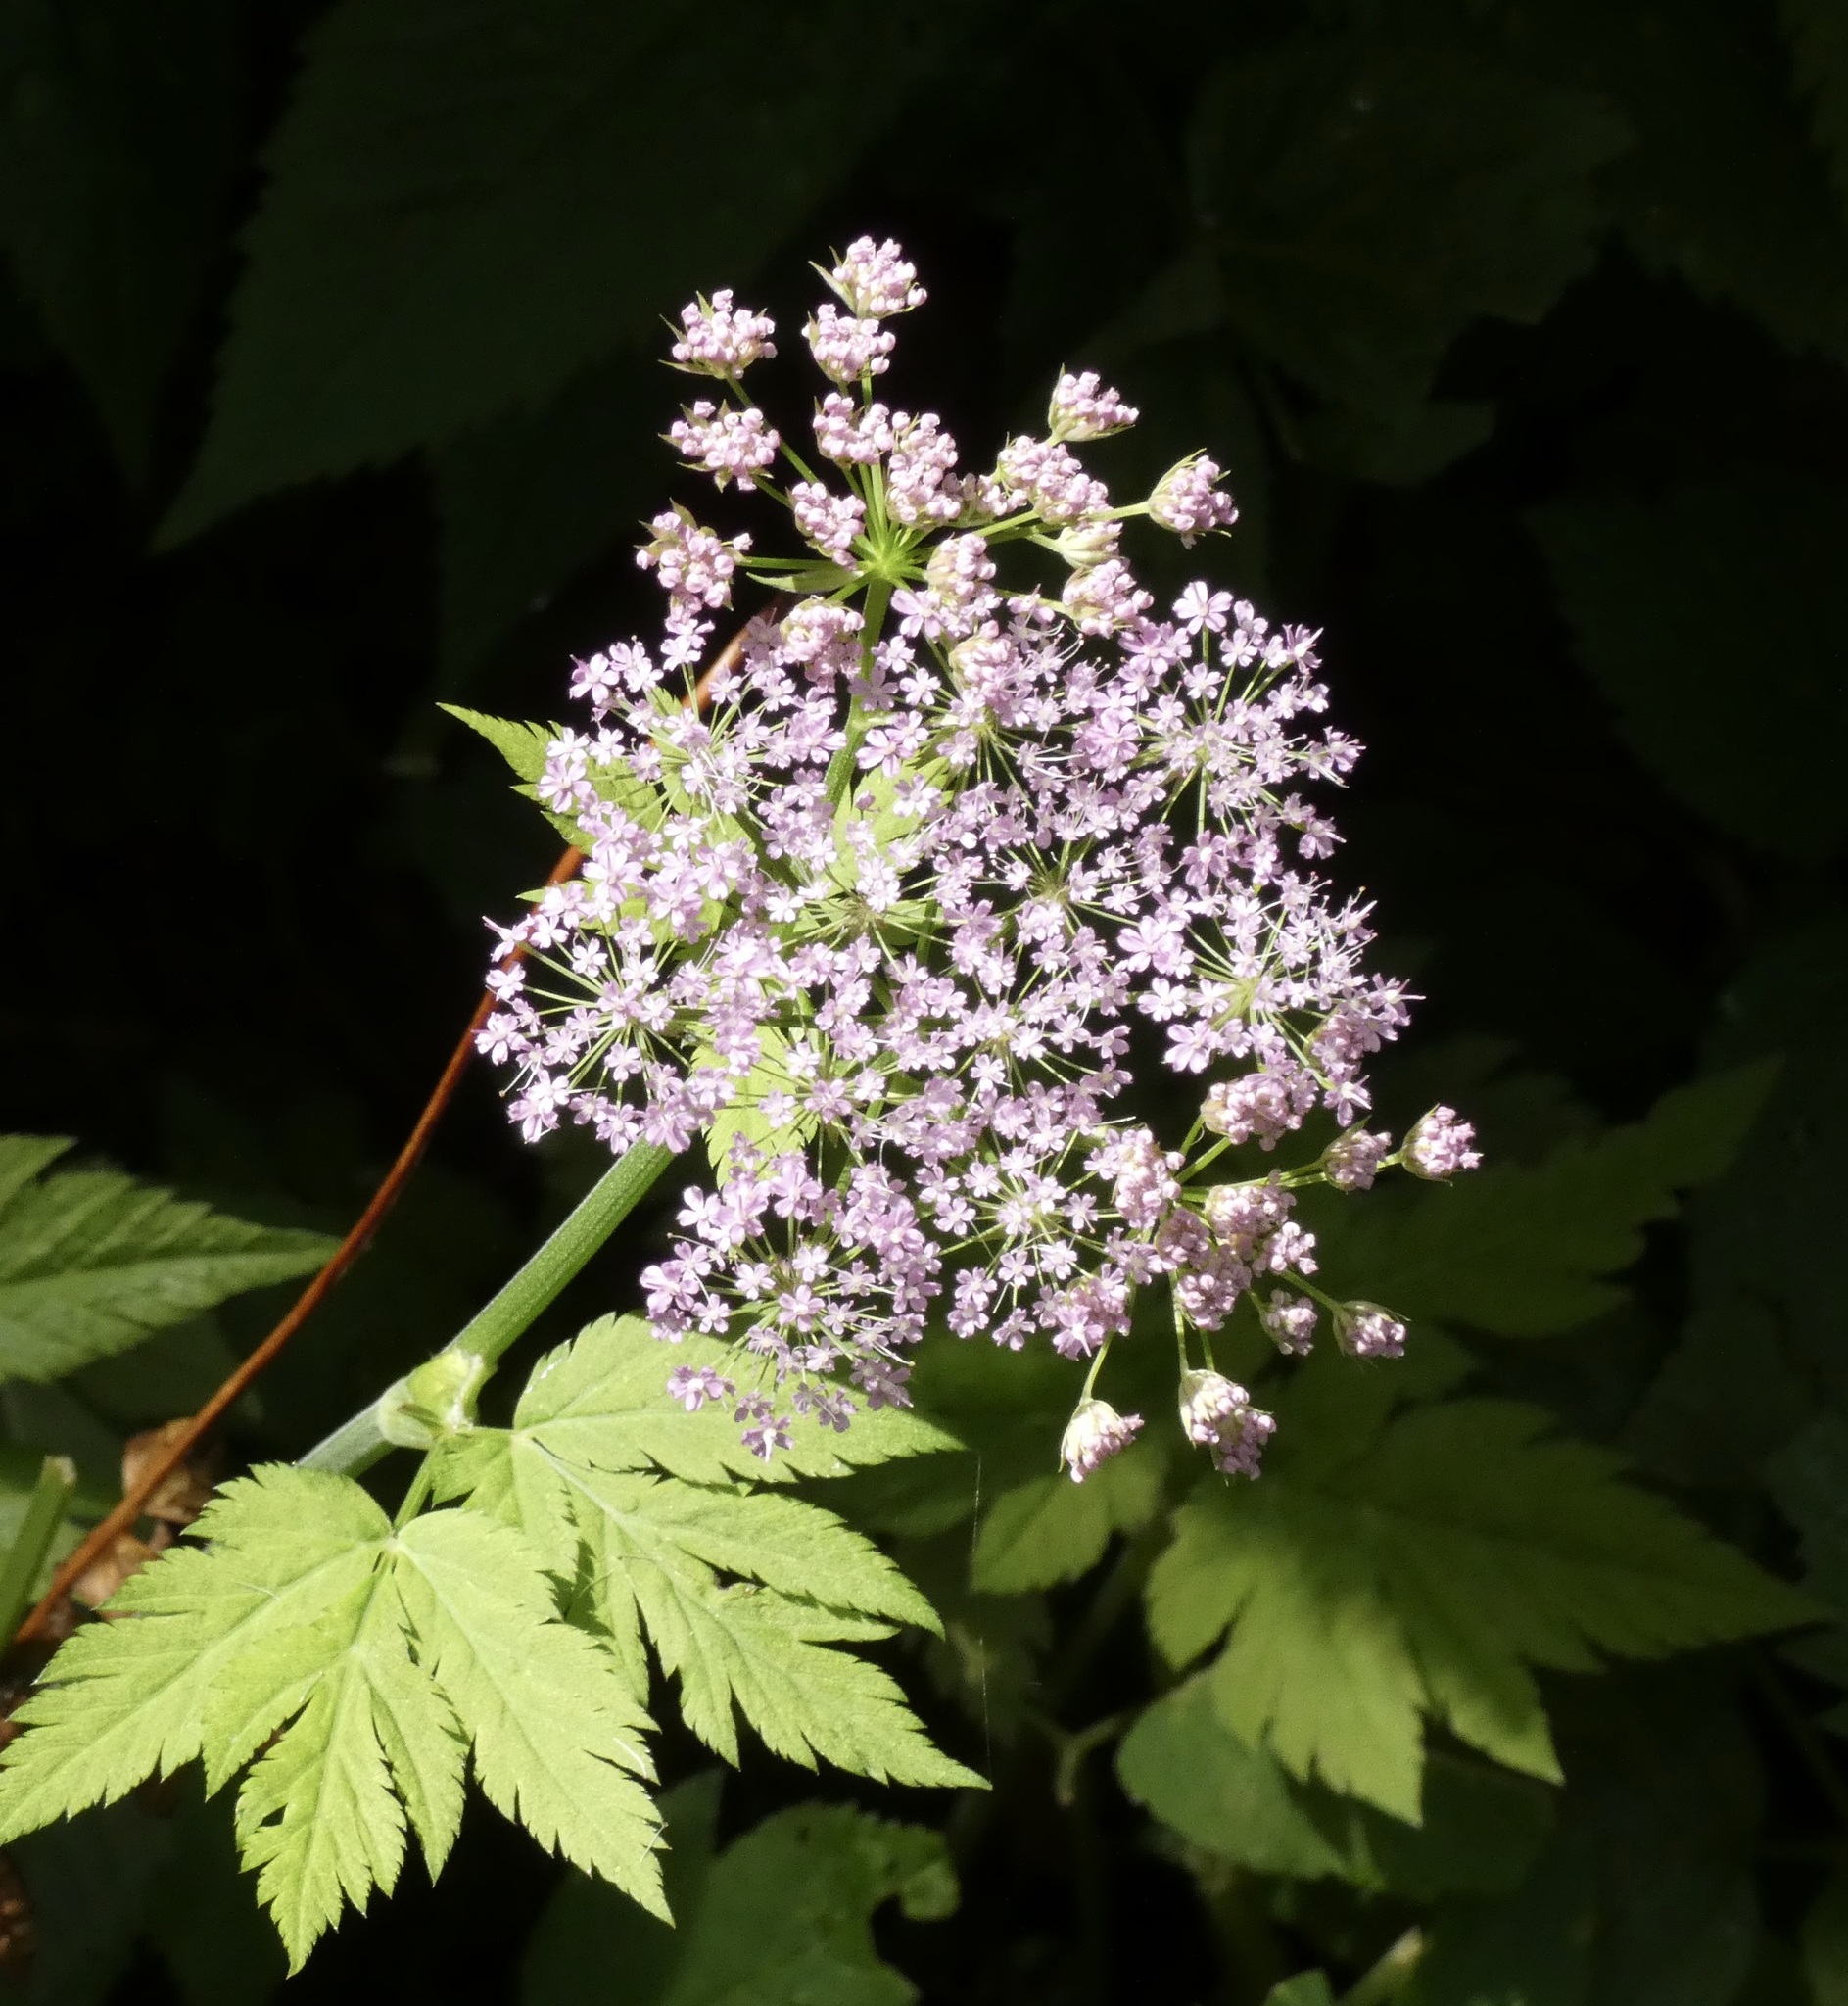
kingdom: Plantae
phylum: Tracheophyta
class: Magnoliopsida
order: Apiales
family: Apiaceae
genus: Chaerophyllum
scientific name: Chaerophyllum hirsutum
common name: Hairy chervil
